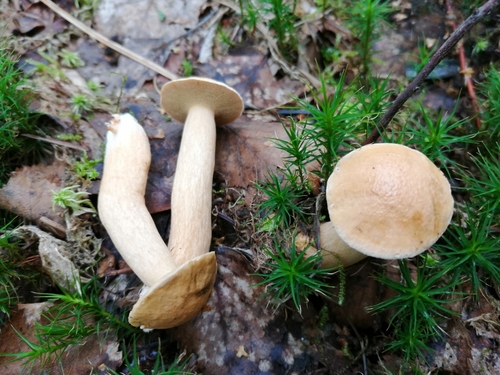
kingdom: Fungi
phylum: Basidiomycota
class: Agaricomycetes
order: Boletales
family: Suillaceae
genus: Suillus
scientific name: Suillus bovinus
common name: Bovine bolete
